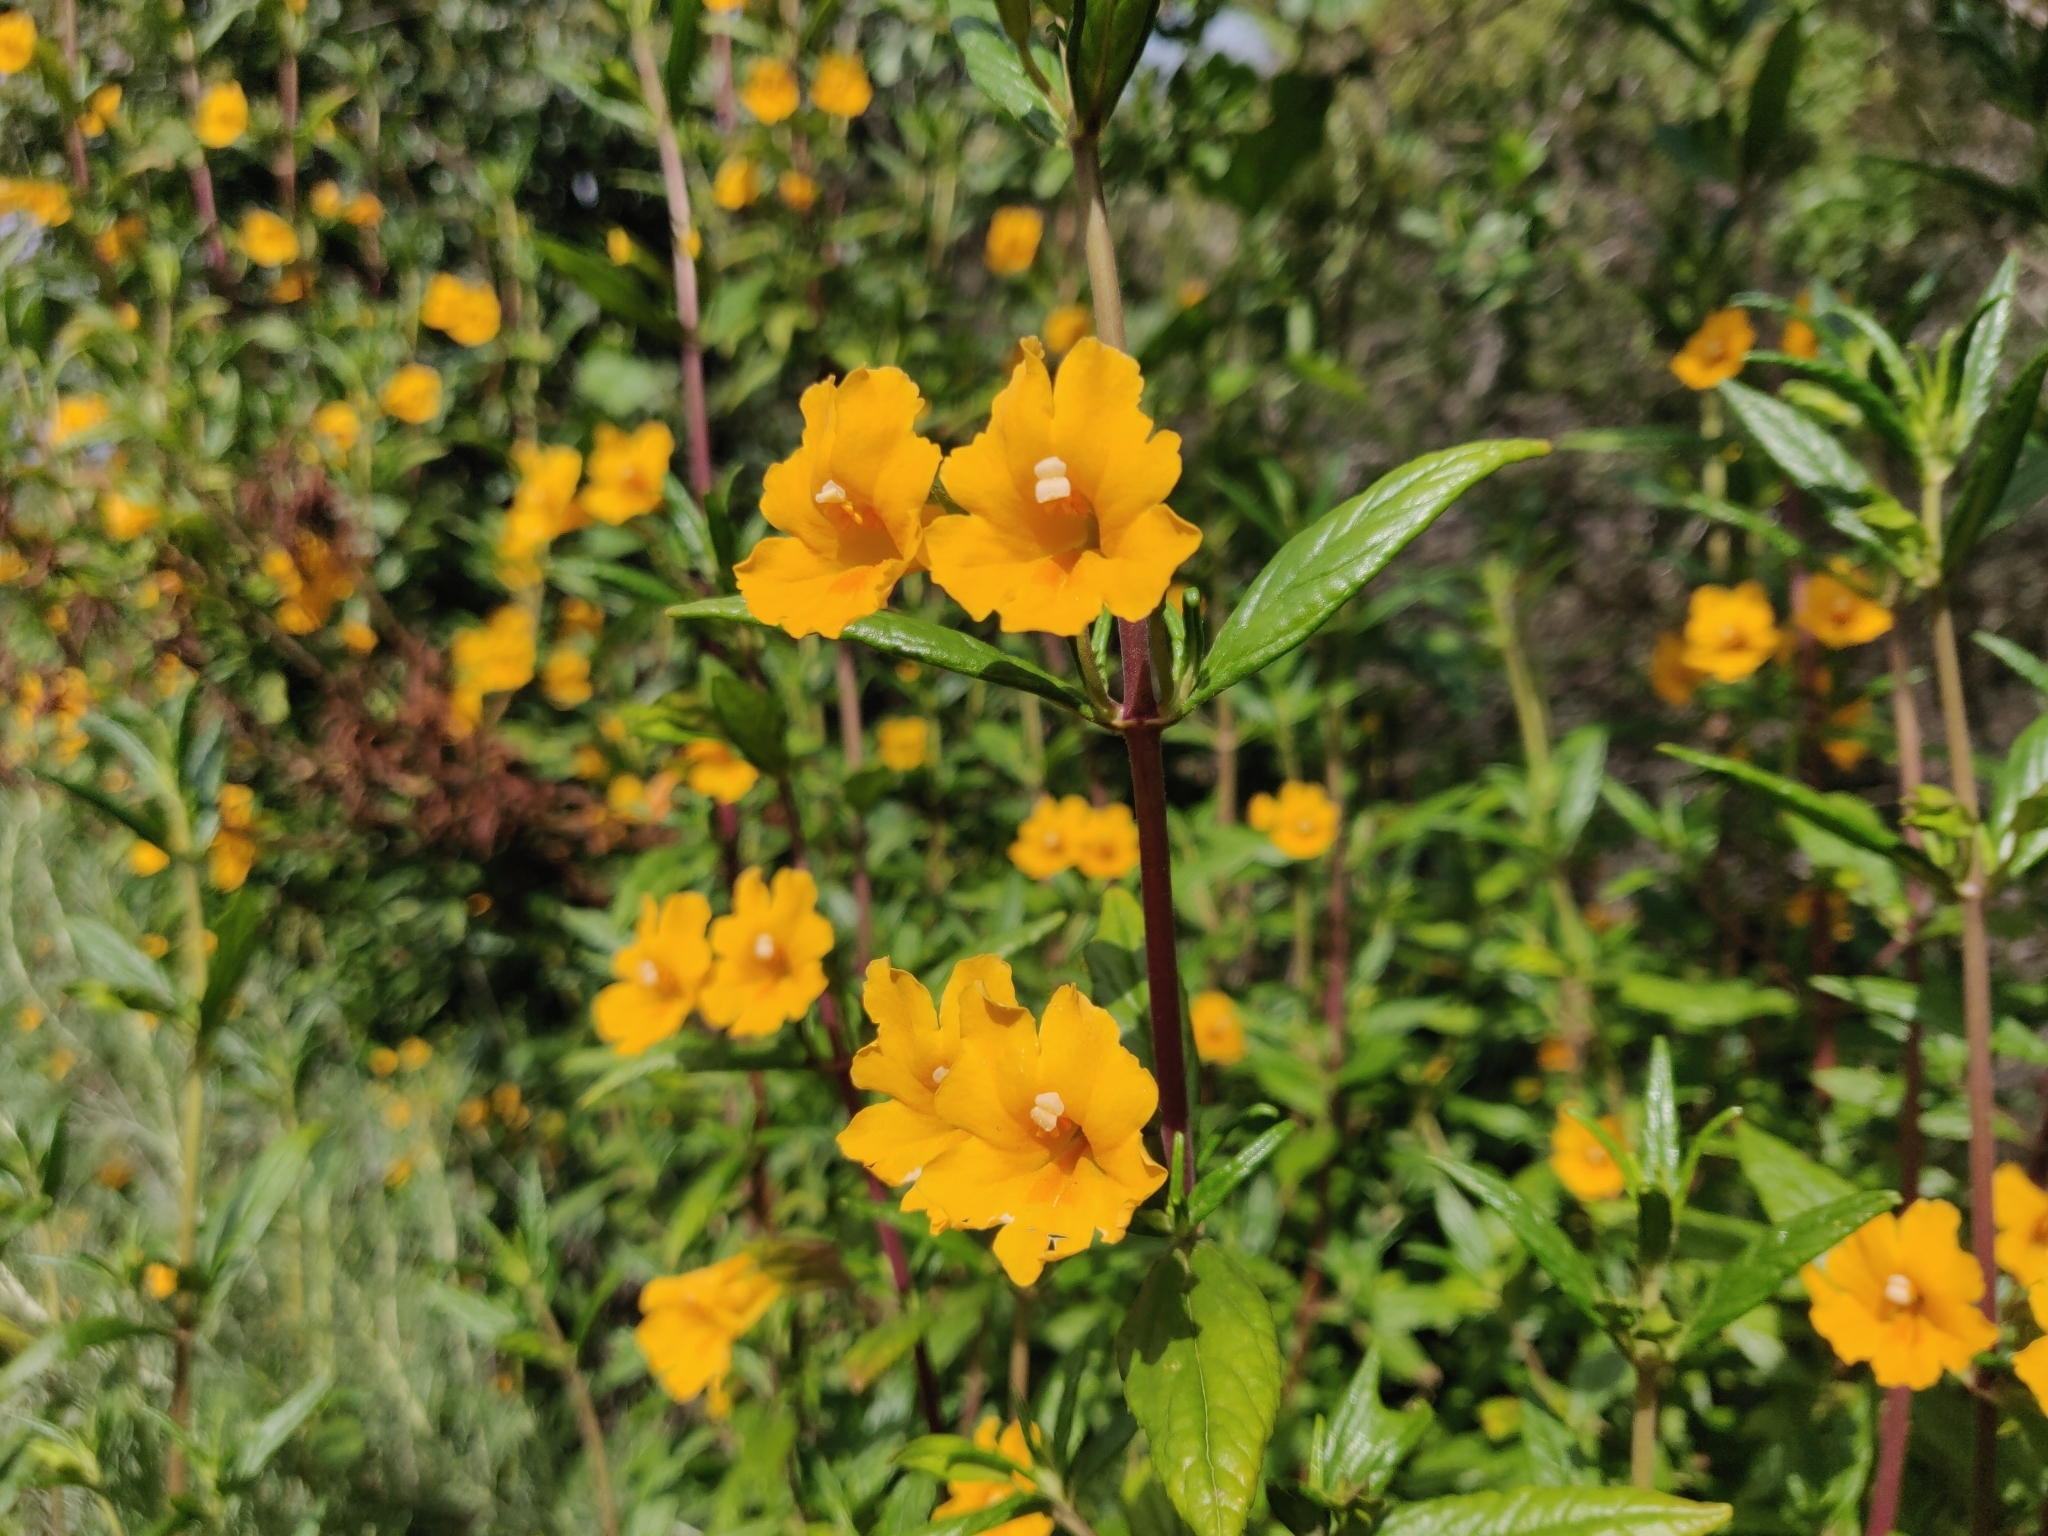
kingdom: Plantae
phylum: Tracheophyta
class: Magnoliopsida
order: Lamiales
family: Phrymaceae
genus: Diplacus
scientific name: Diplacus aurantiacus
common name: Bush monkey-flower
